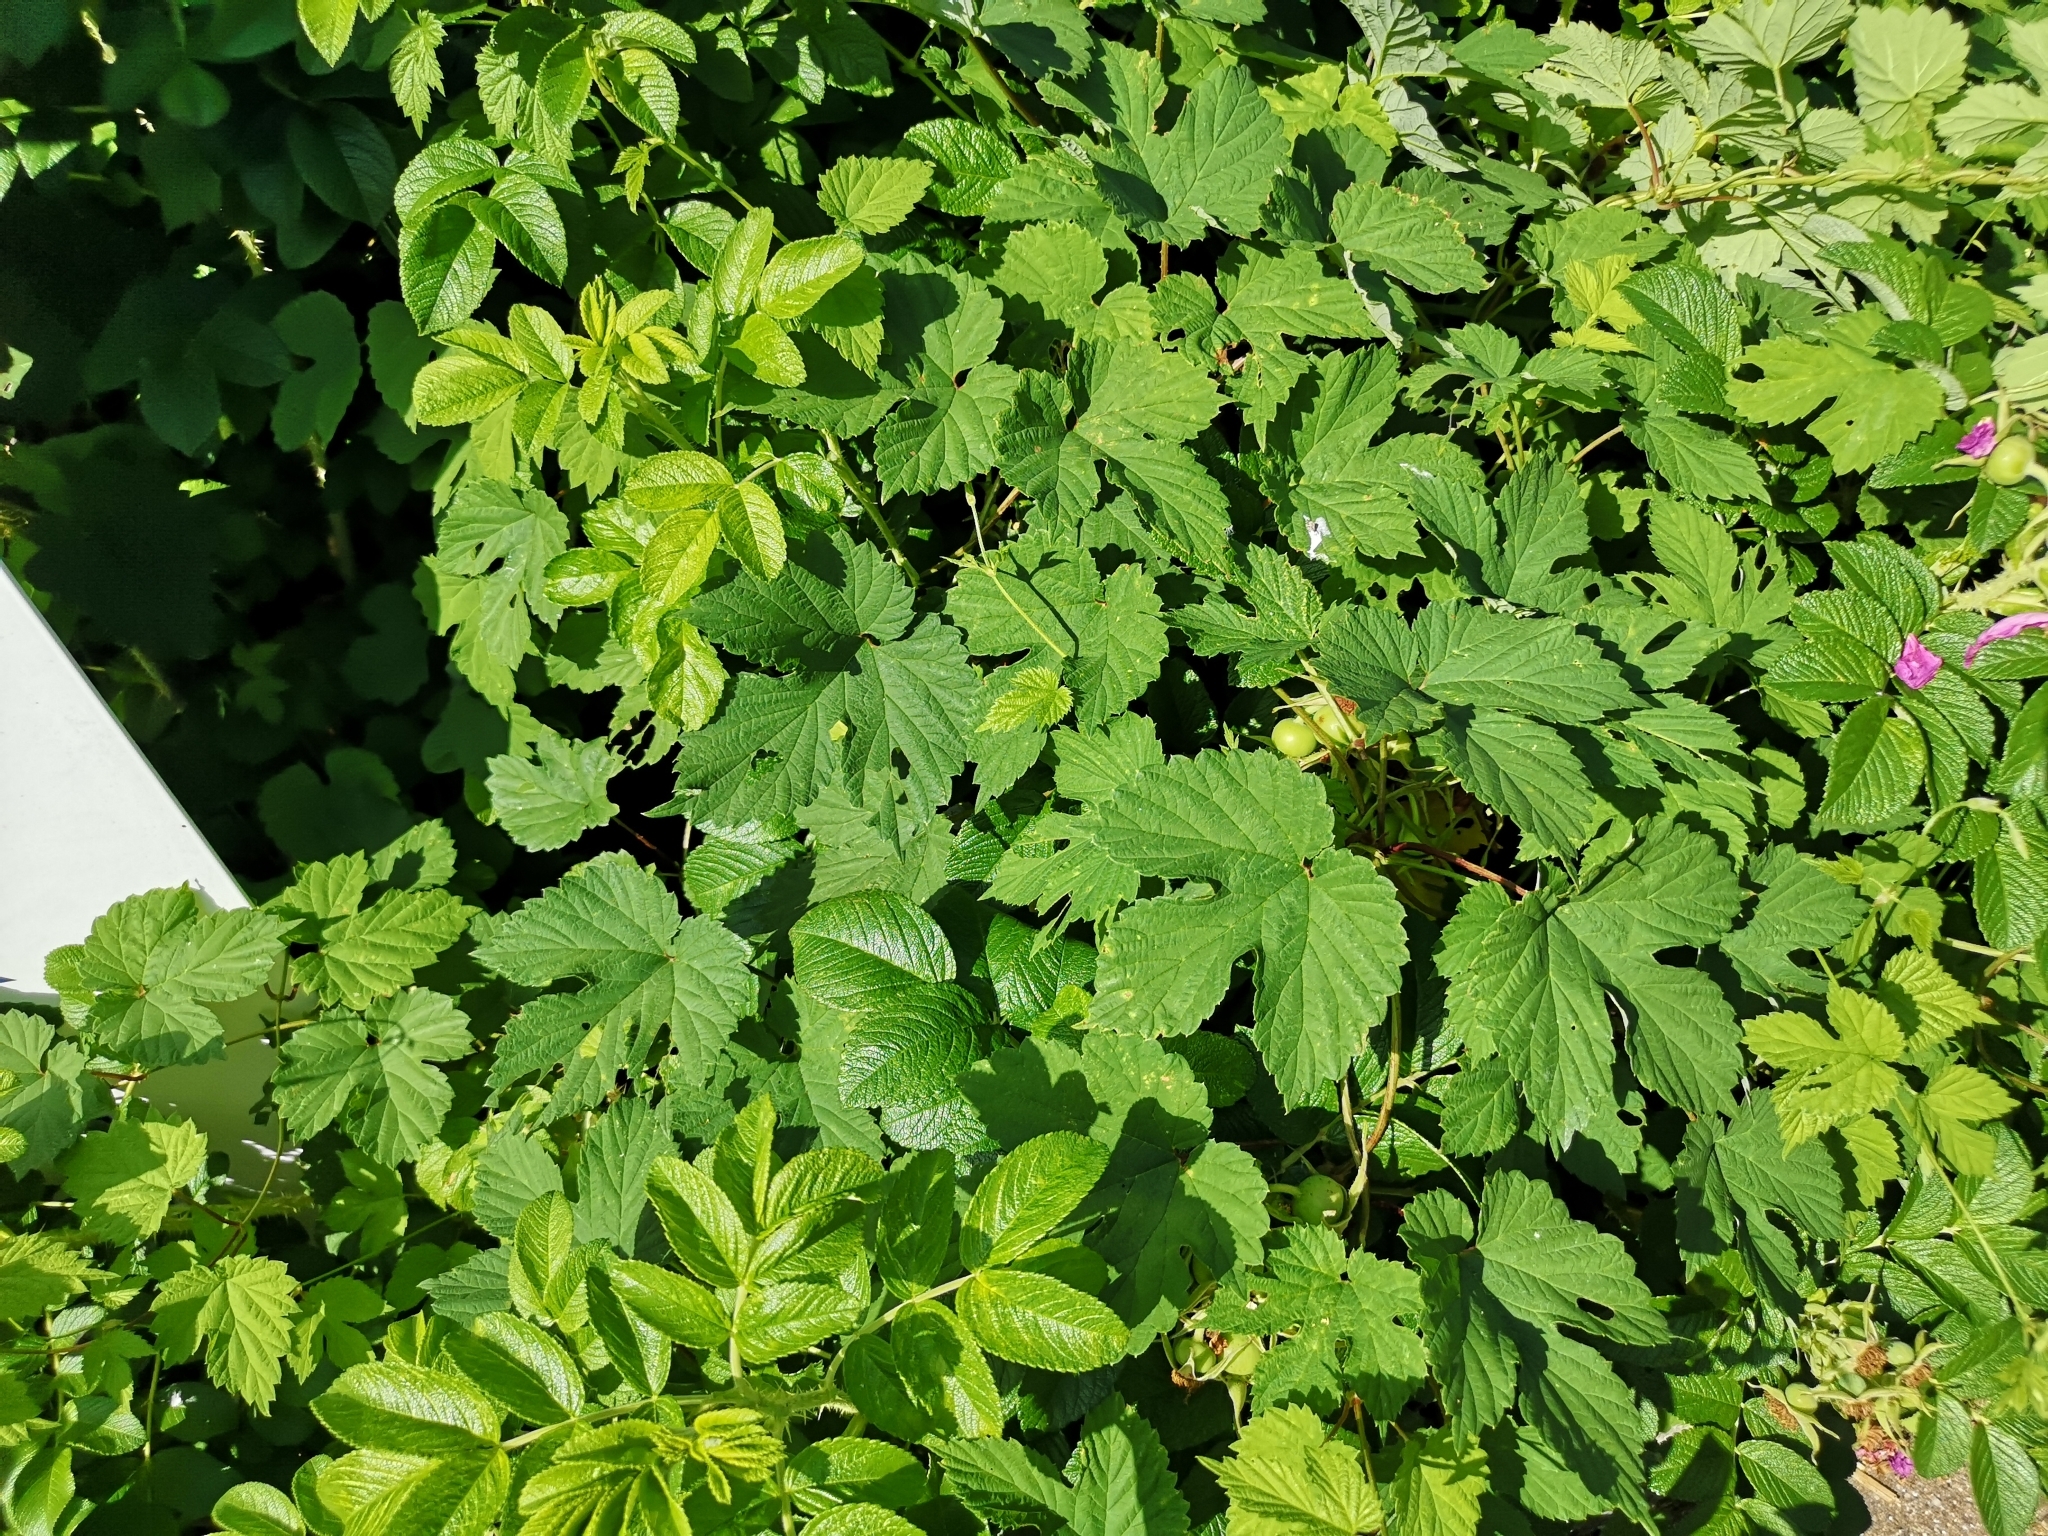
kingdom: Plantae
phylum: Tracheophyta
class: Magnoliopsida
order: Rosales
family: Cannabaceae
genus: Humulus
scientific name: Humulus lupulus
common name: Hop
